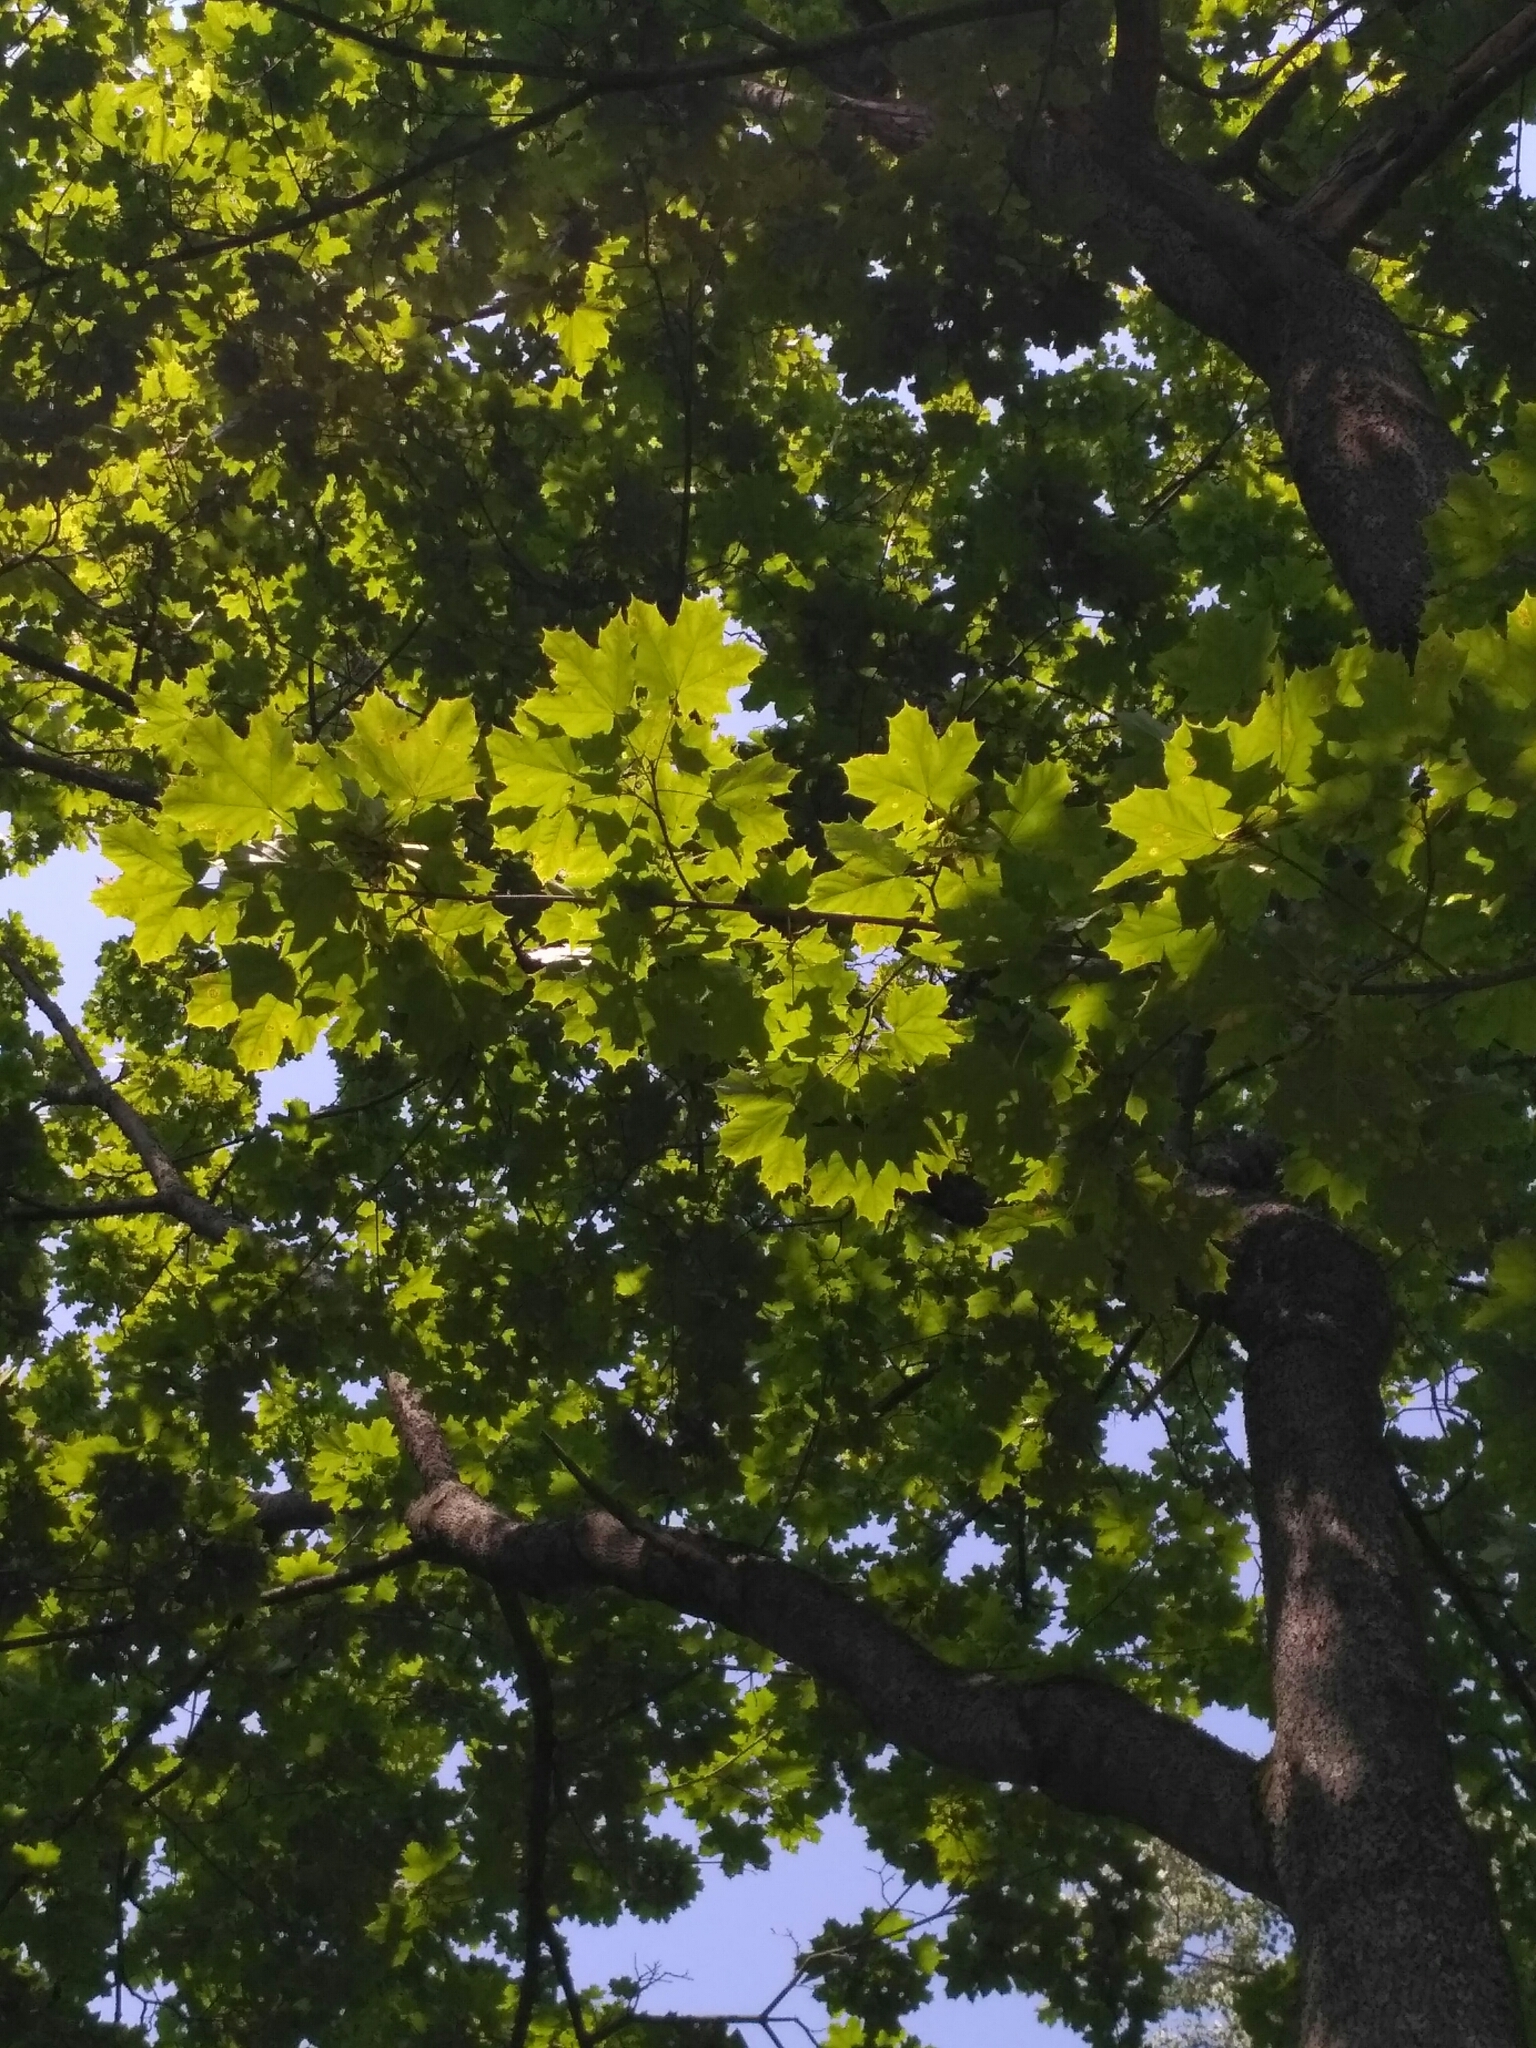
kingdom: Plantae
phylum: Tracheophyta
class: Magnoliopsida
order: Sapindales
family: Sapindaceae
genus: Acer
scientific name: Acer platanoides
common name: Norway maple
